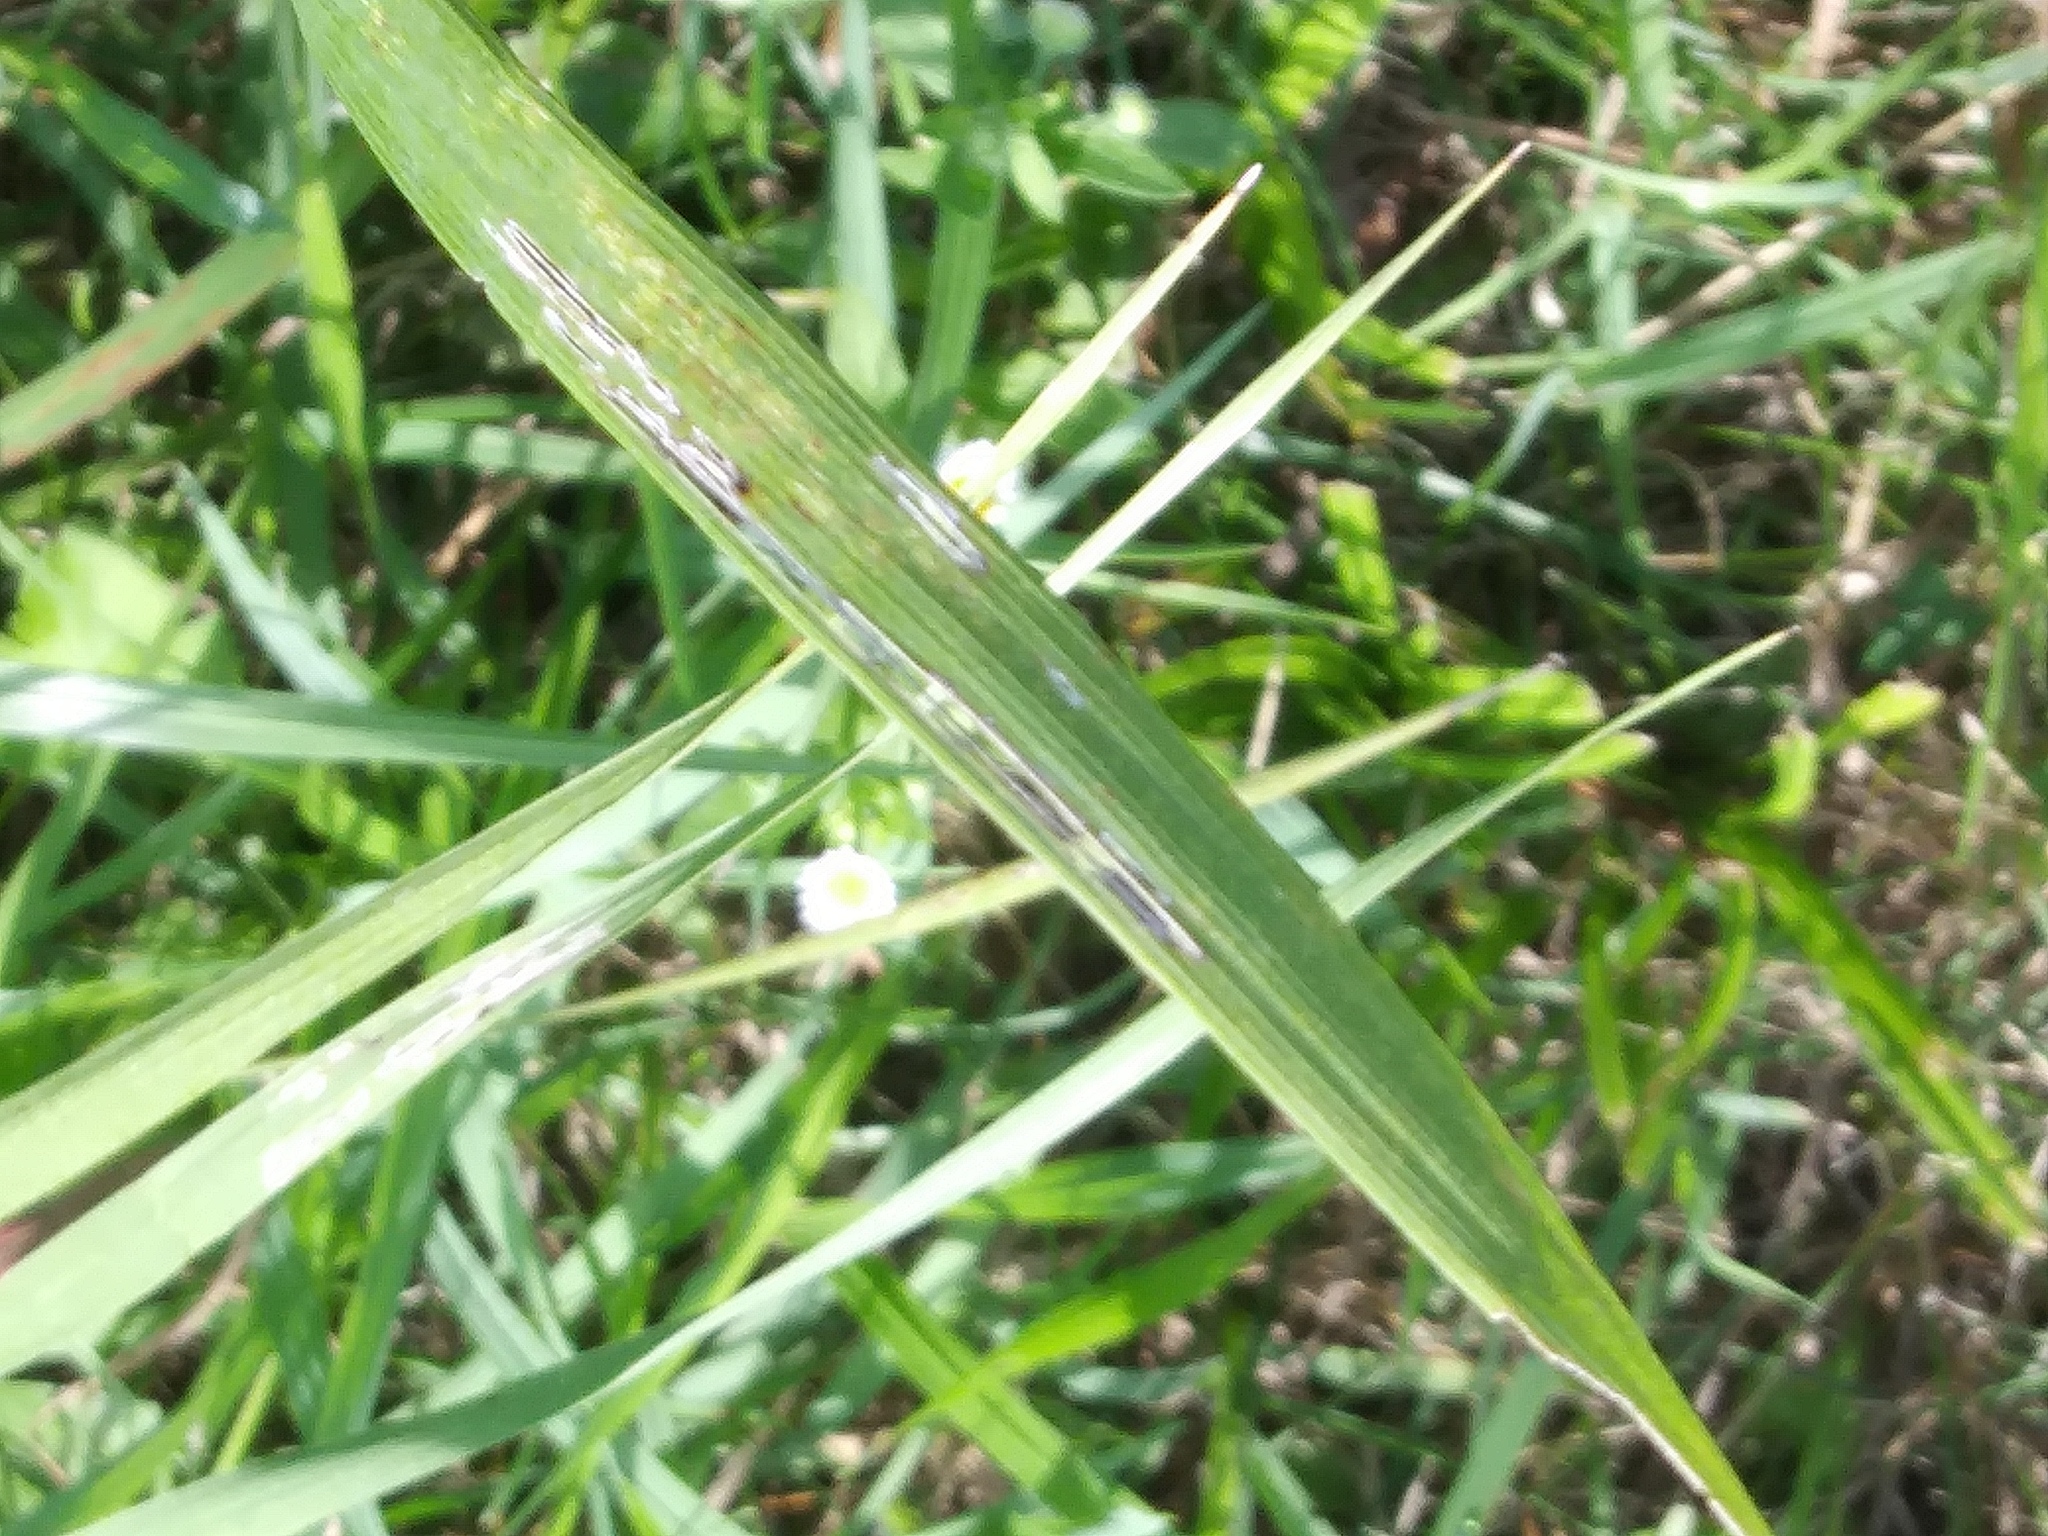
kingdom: Plantae
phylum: Tracheophyta
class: Liliopsida
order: Poales
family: Poaceae
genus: Bromus
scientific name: Bromus inermis
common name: Smooth brome
